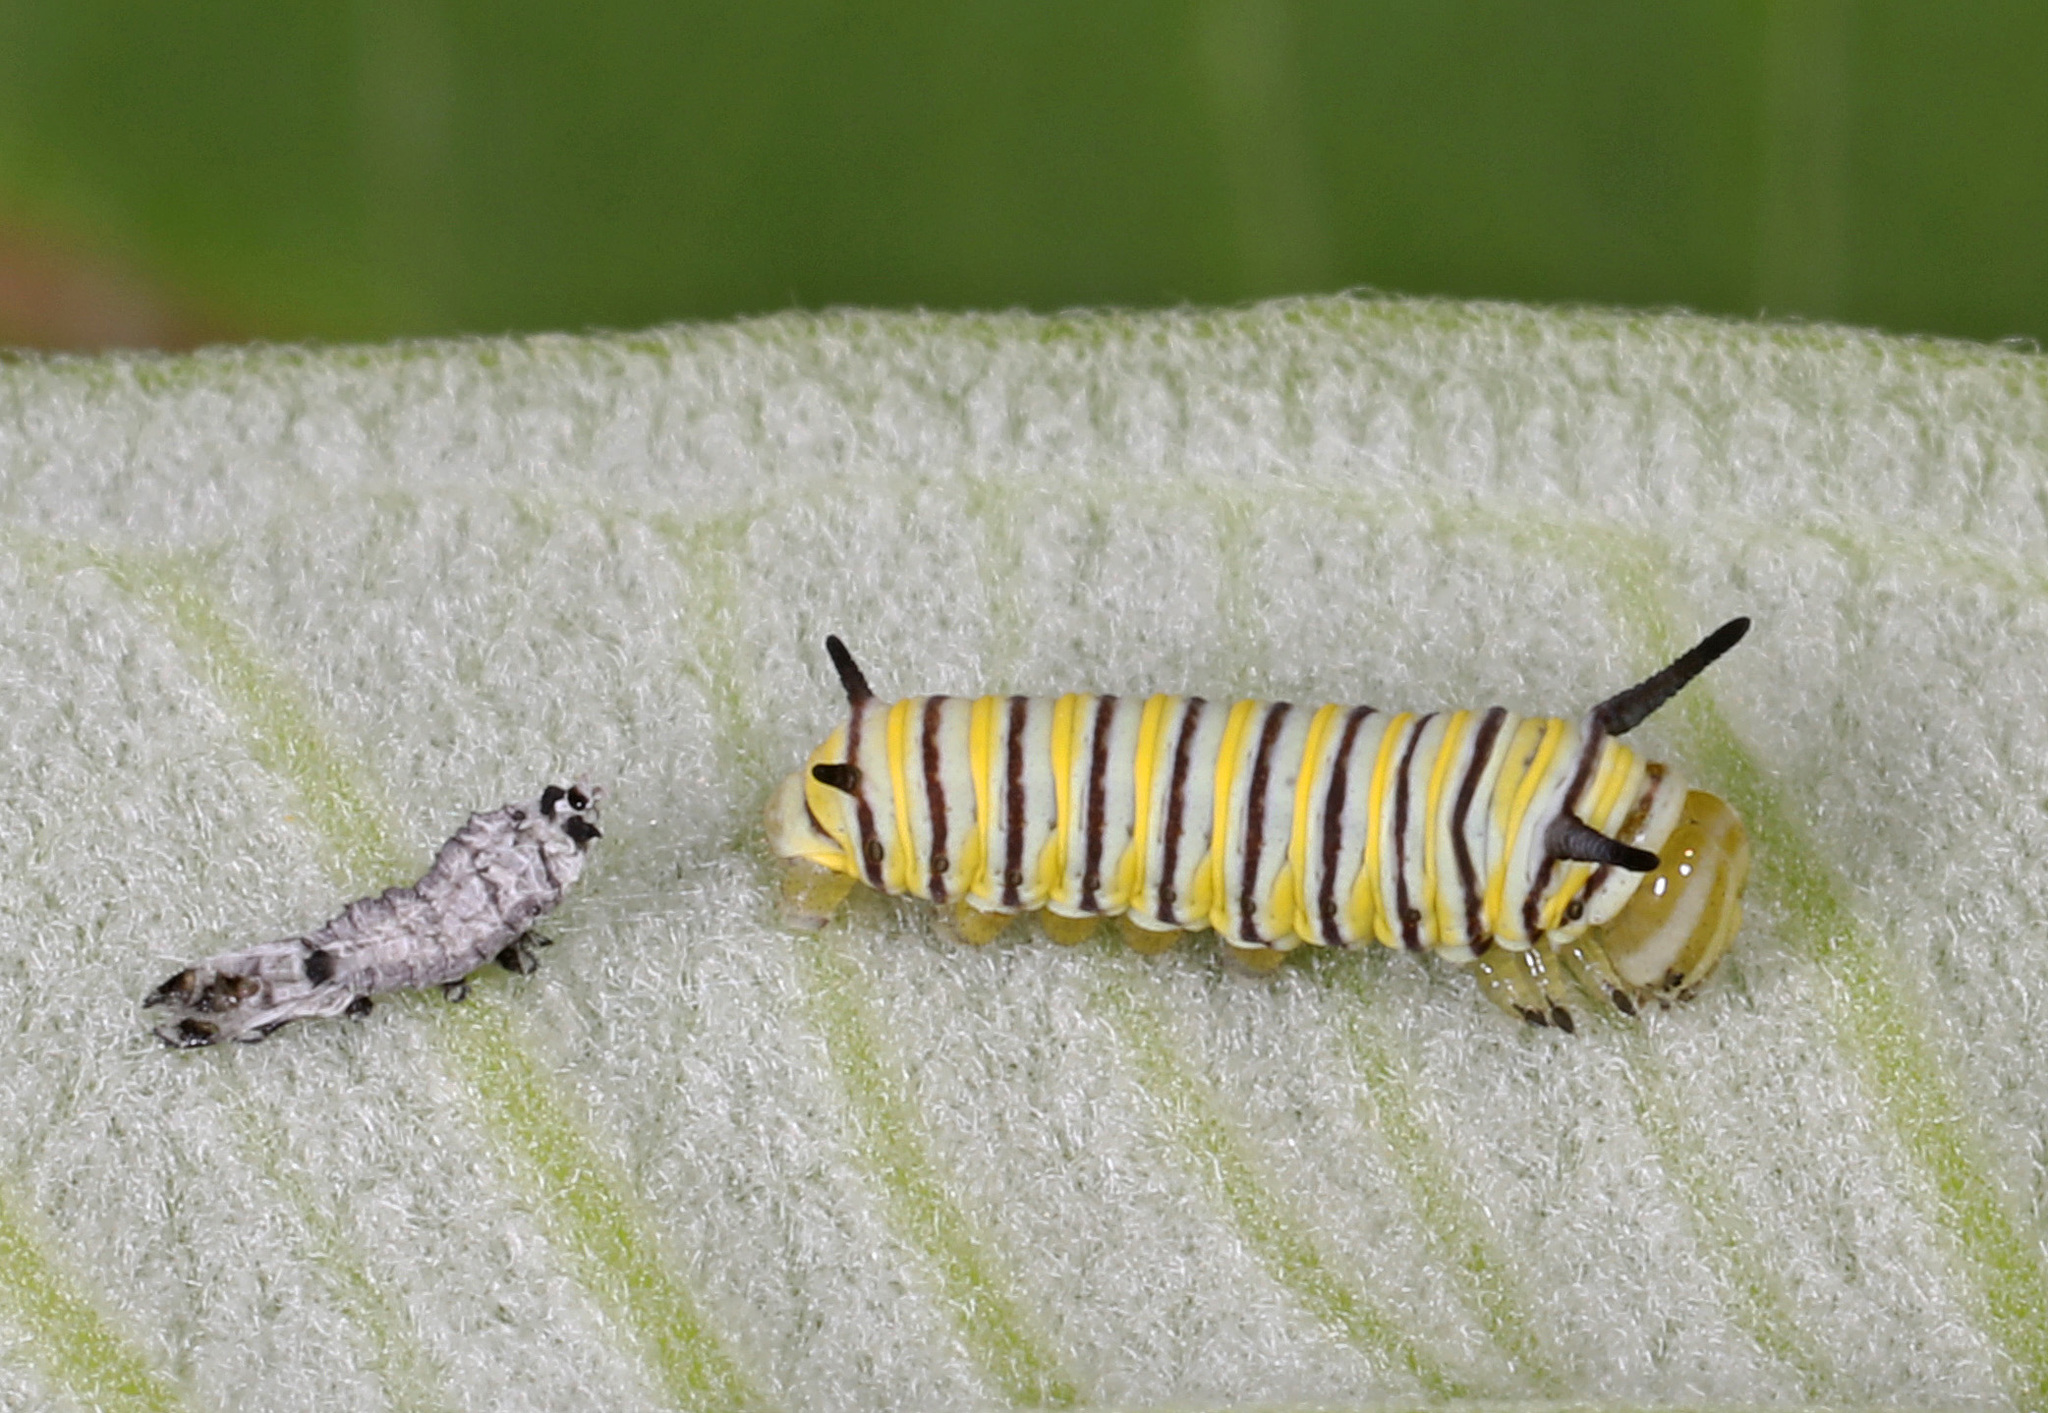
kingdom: Animalia
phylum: Arthropoda
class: Insecta
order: Lepidoptera
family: Nymphalidae
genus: Danaus
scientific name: Danaus plexippus
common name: Monarch
